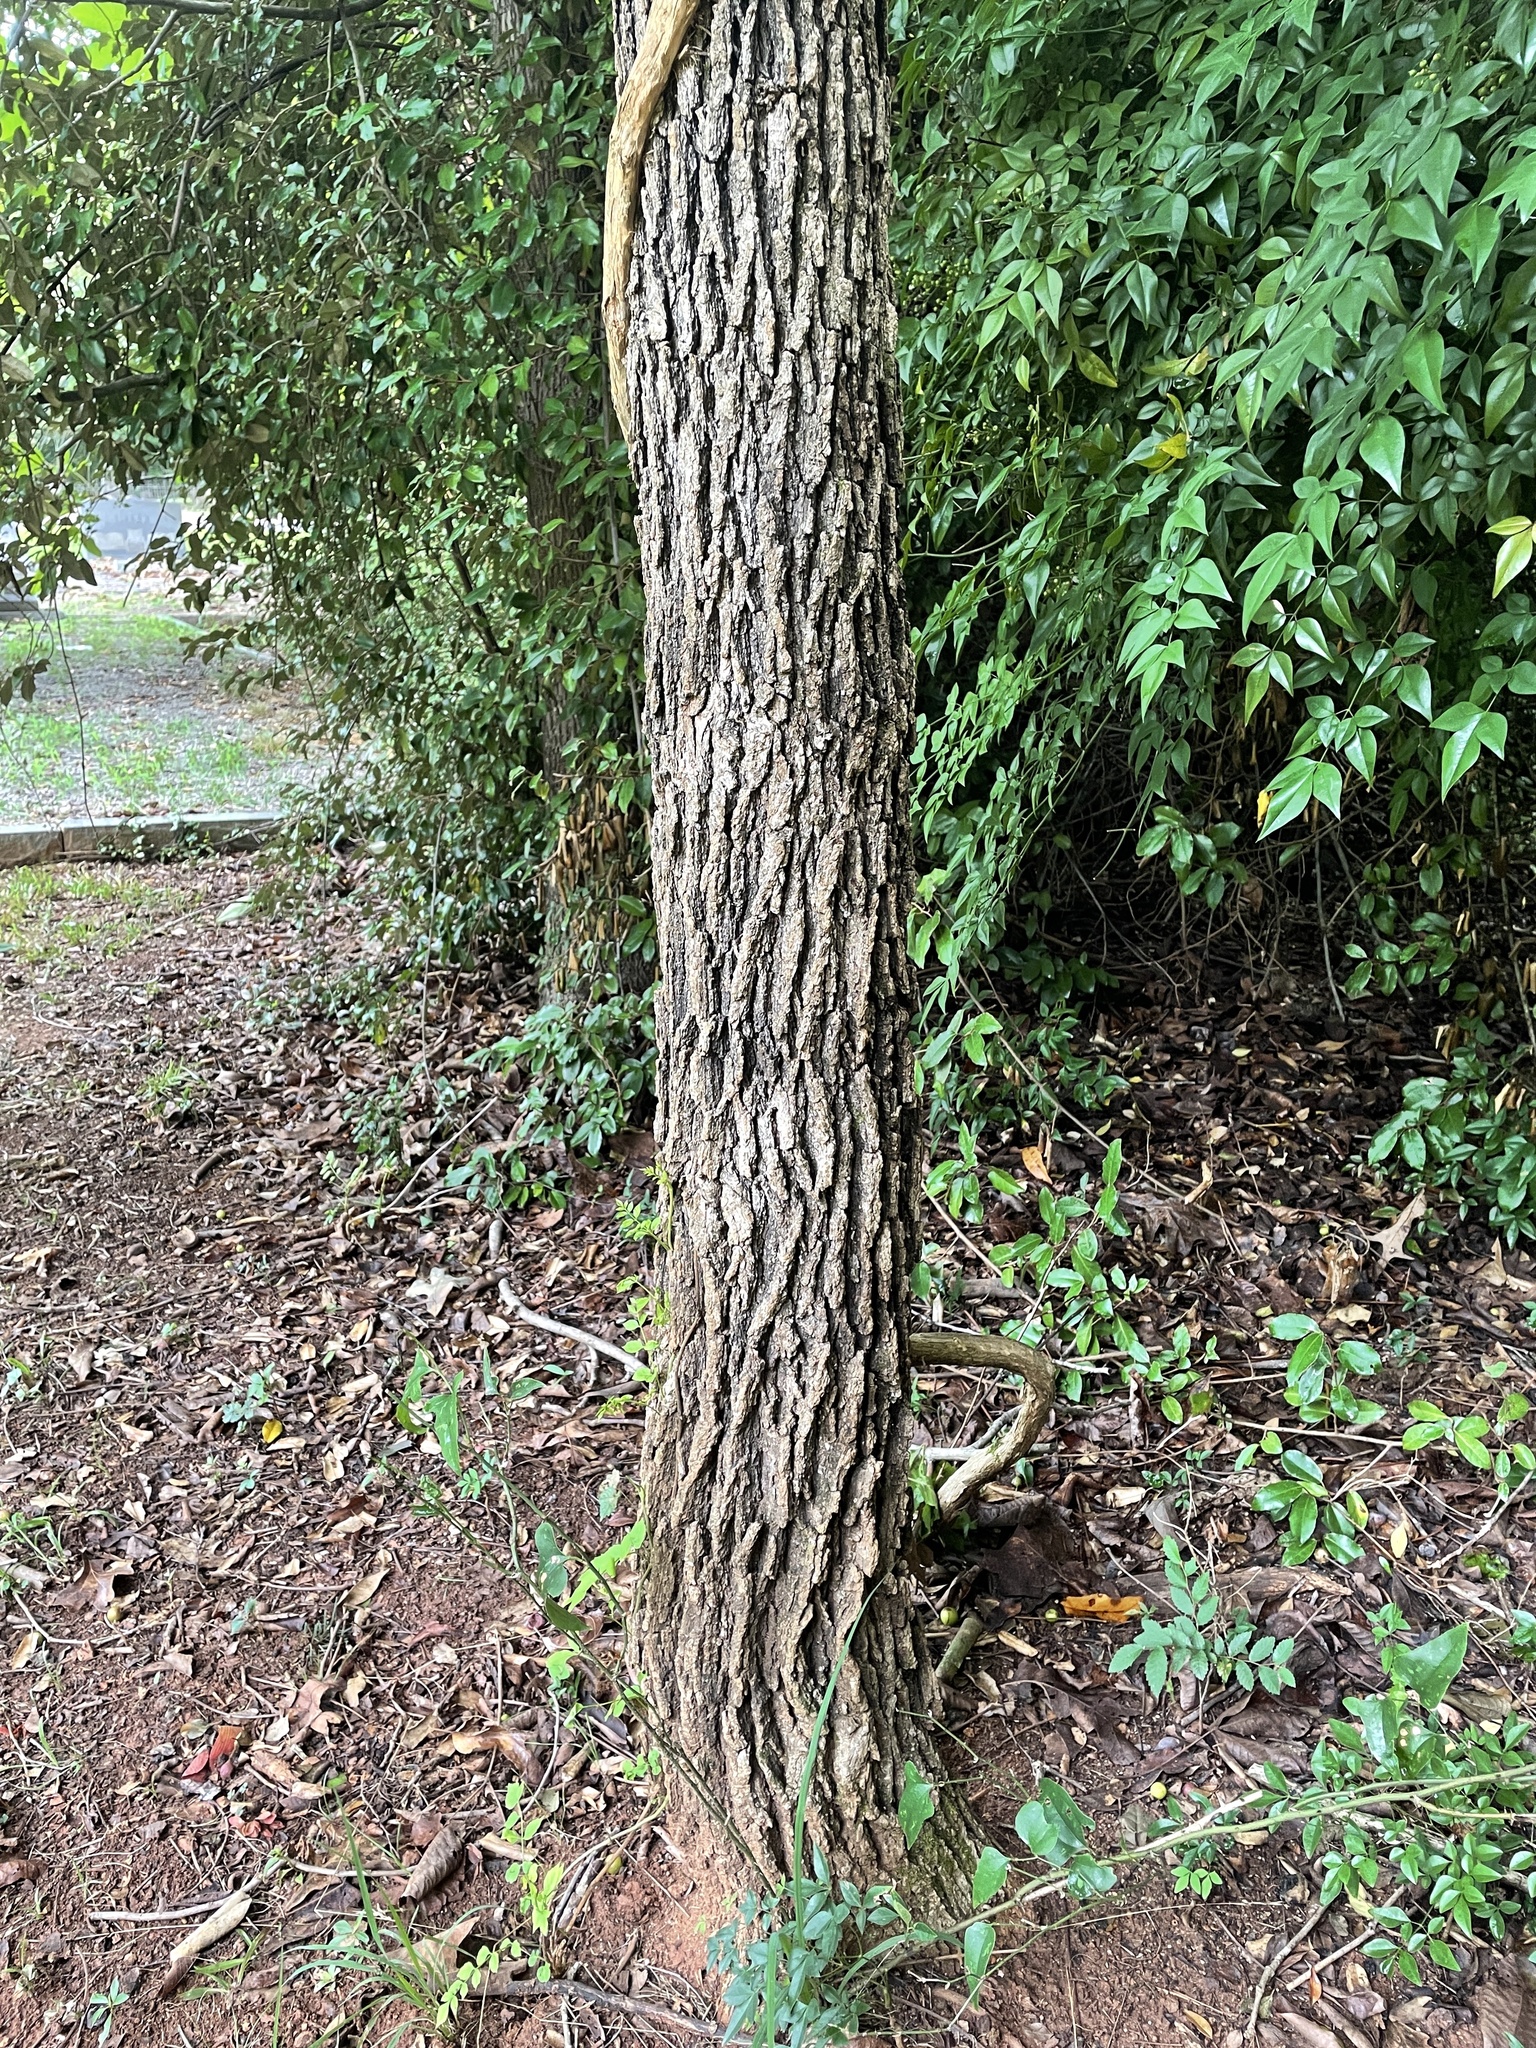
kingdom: Animalia
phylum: Arthropoda
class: Insecta
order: Hymenoptera
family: Cynipidae
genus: Andricus
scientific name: Andricus
